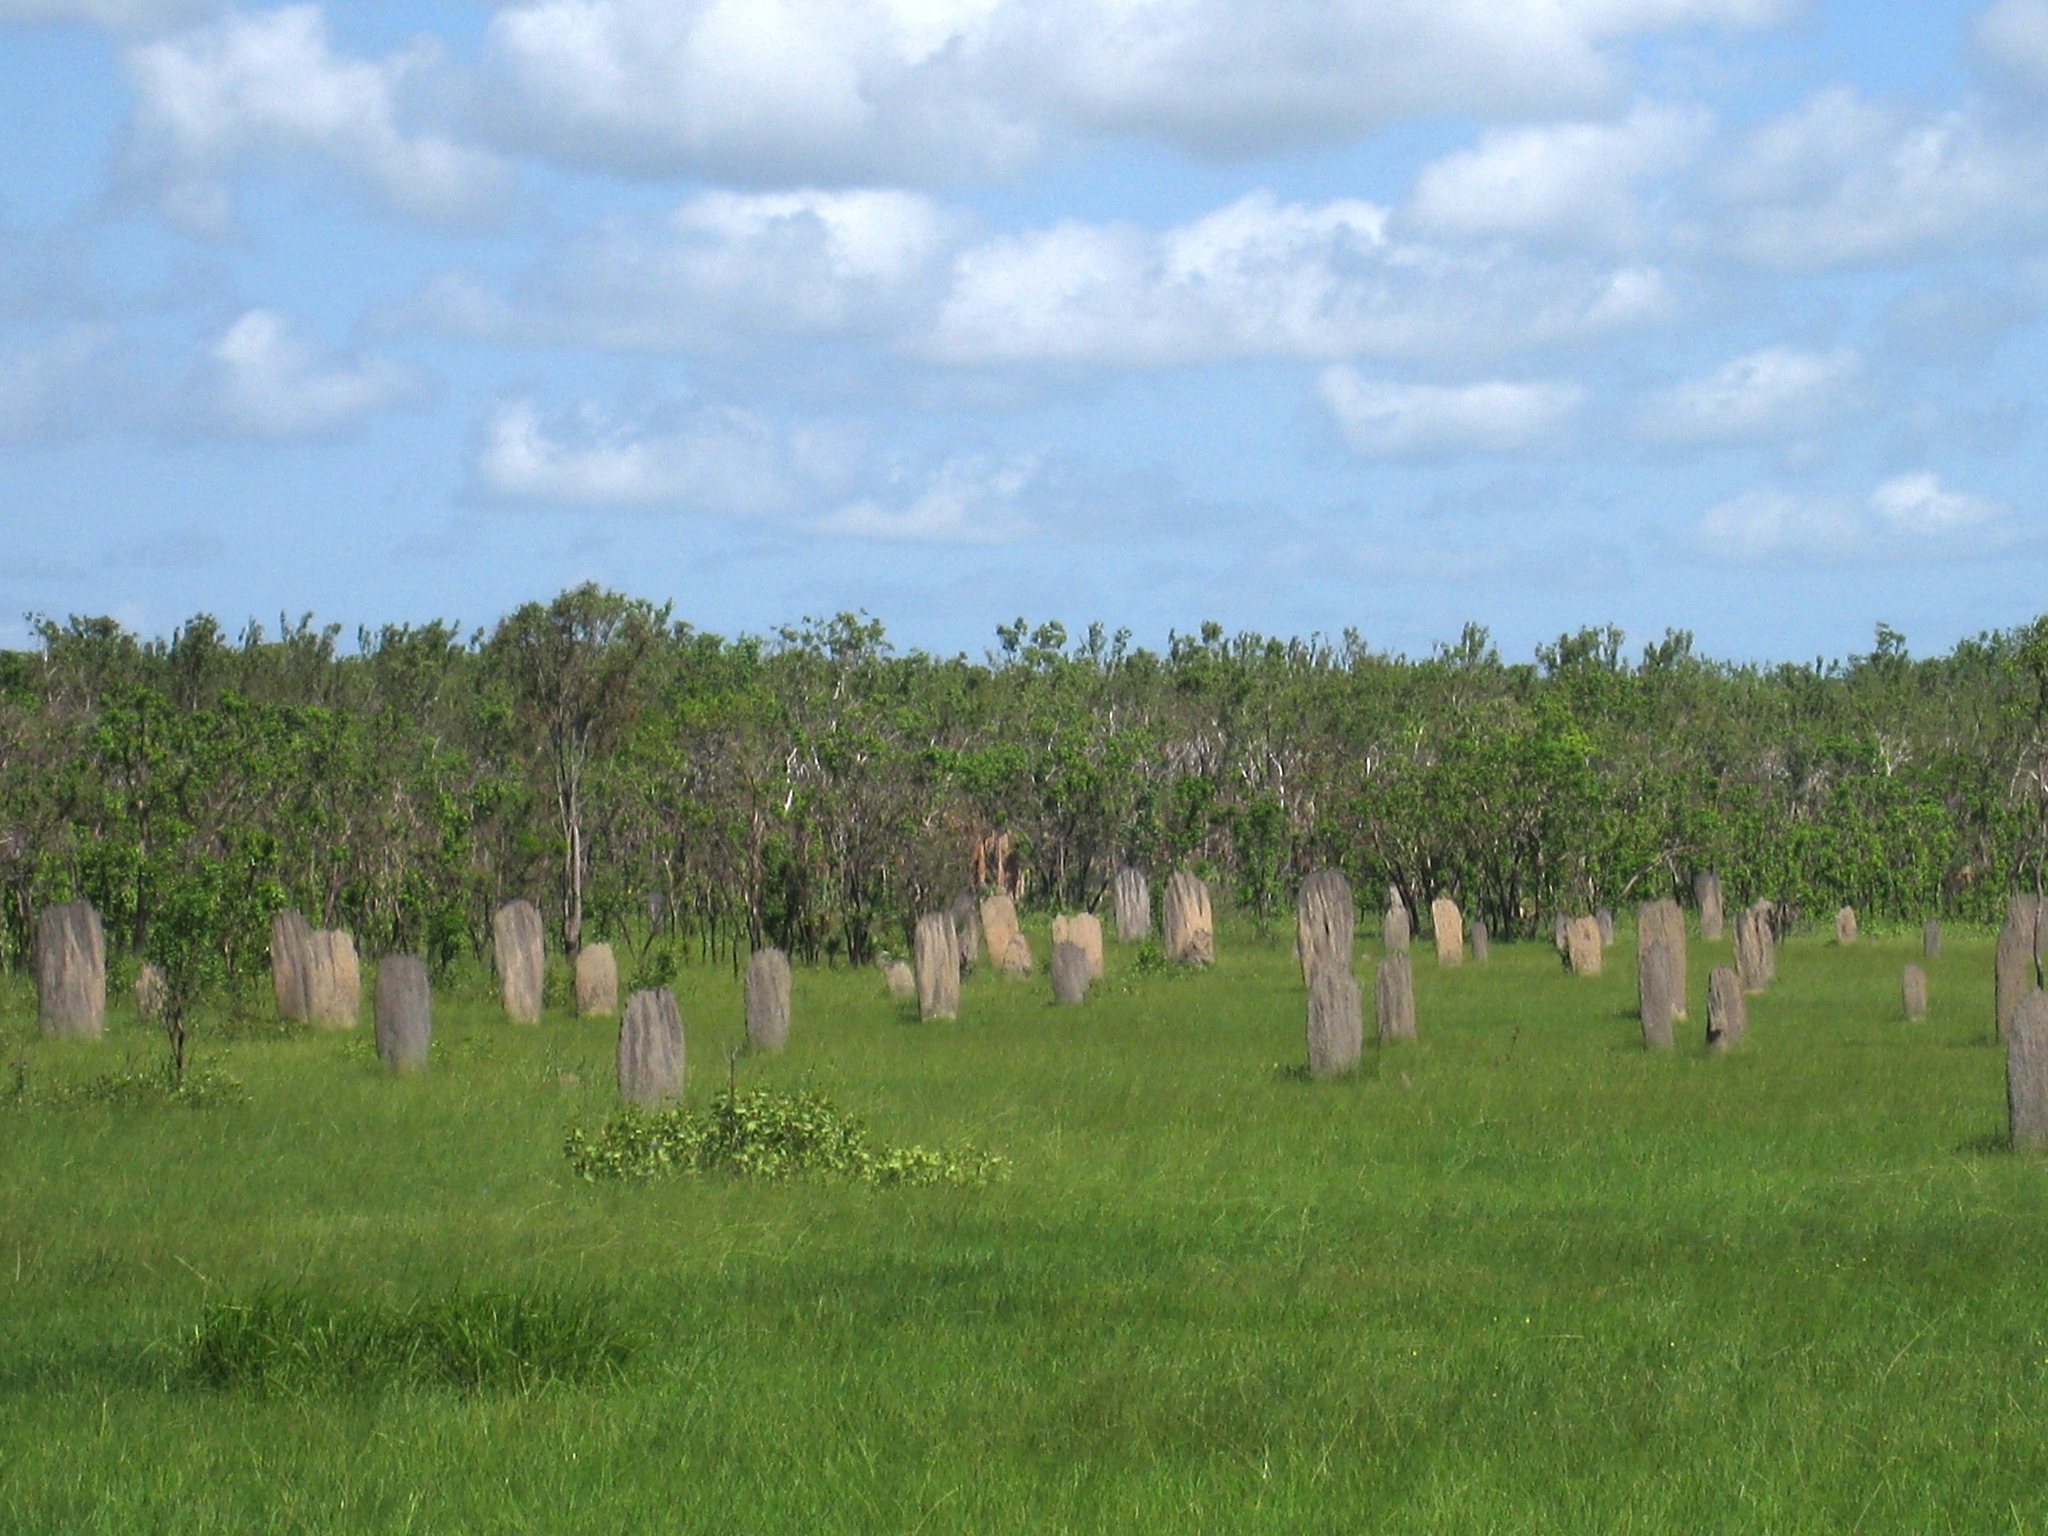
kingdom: Animalia
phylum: Arthropoda
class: Insecta
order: Blattodea
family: Termitidae
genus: Amitermes
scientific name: Amitermes meridionalis
